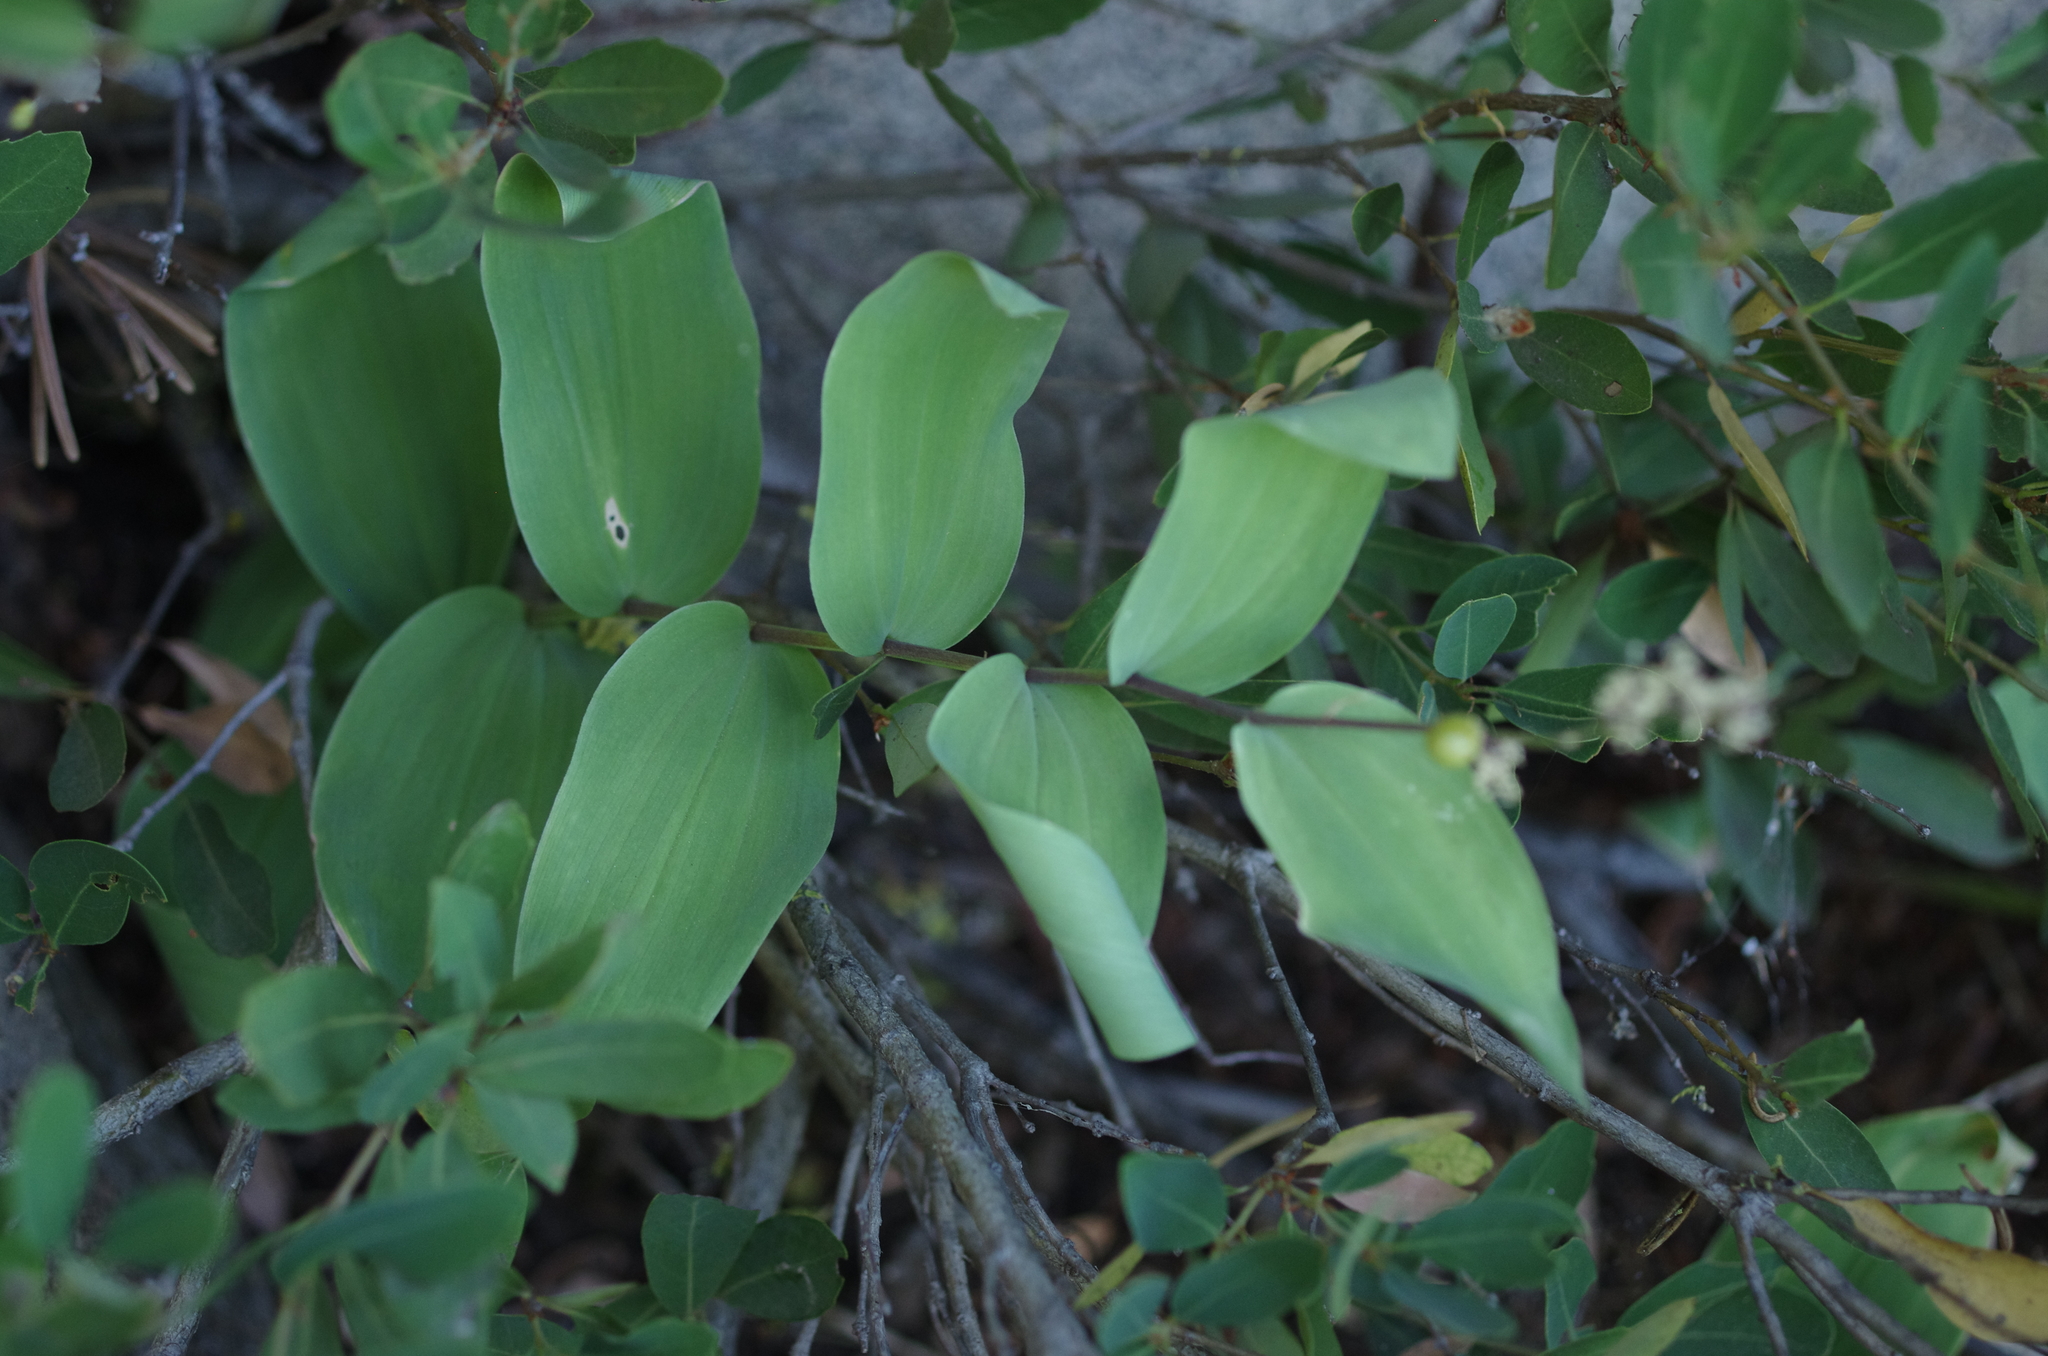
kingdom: Plantae
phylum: Tracheophyta
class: Liliopsida
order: Asparagales
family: Asparagaceae
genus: Maianthemum
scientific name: Maianthemum racemosum
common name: False spikenard
